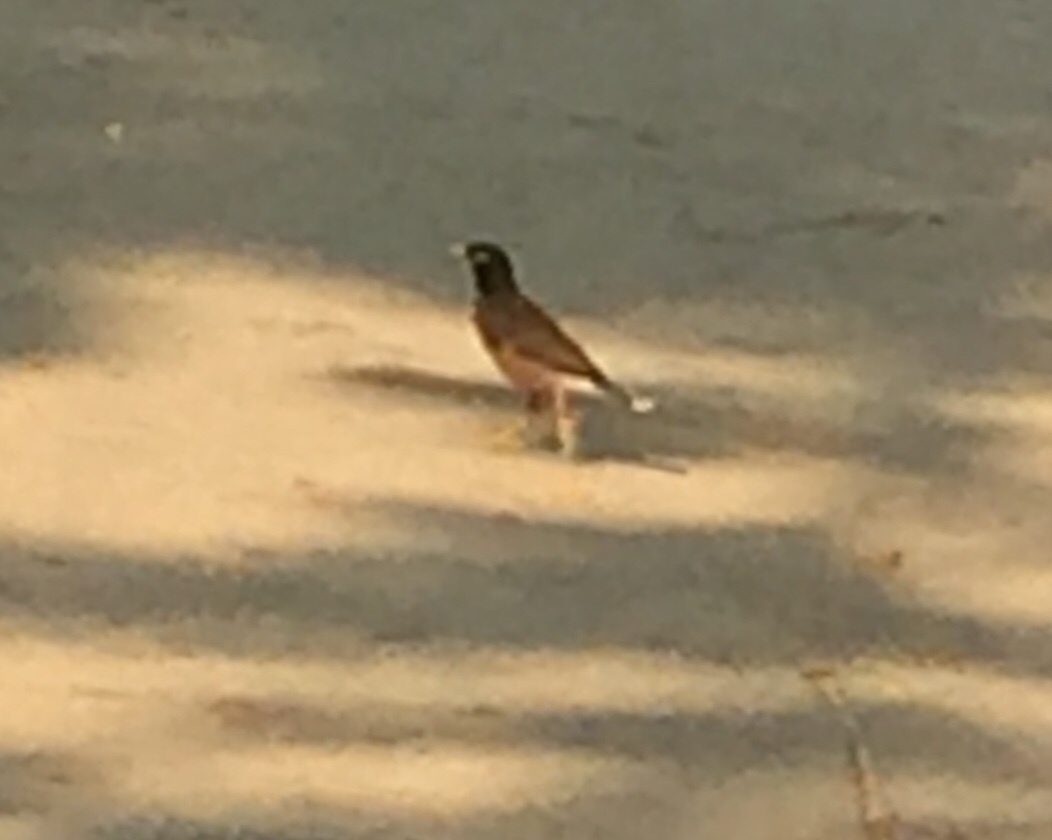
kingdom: Animalia
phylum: Chordata
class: Aves
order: Passeriformes
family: Sturnidae
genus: Acridotheres
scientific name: Acridotheres tristis
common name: Common myna
